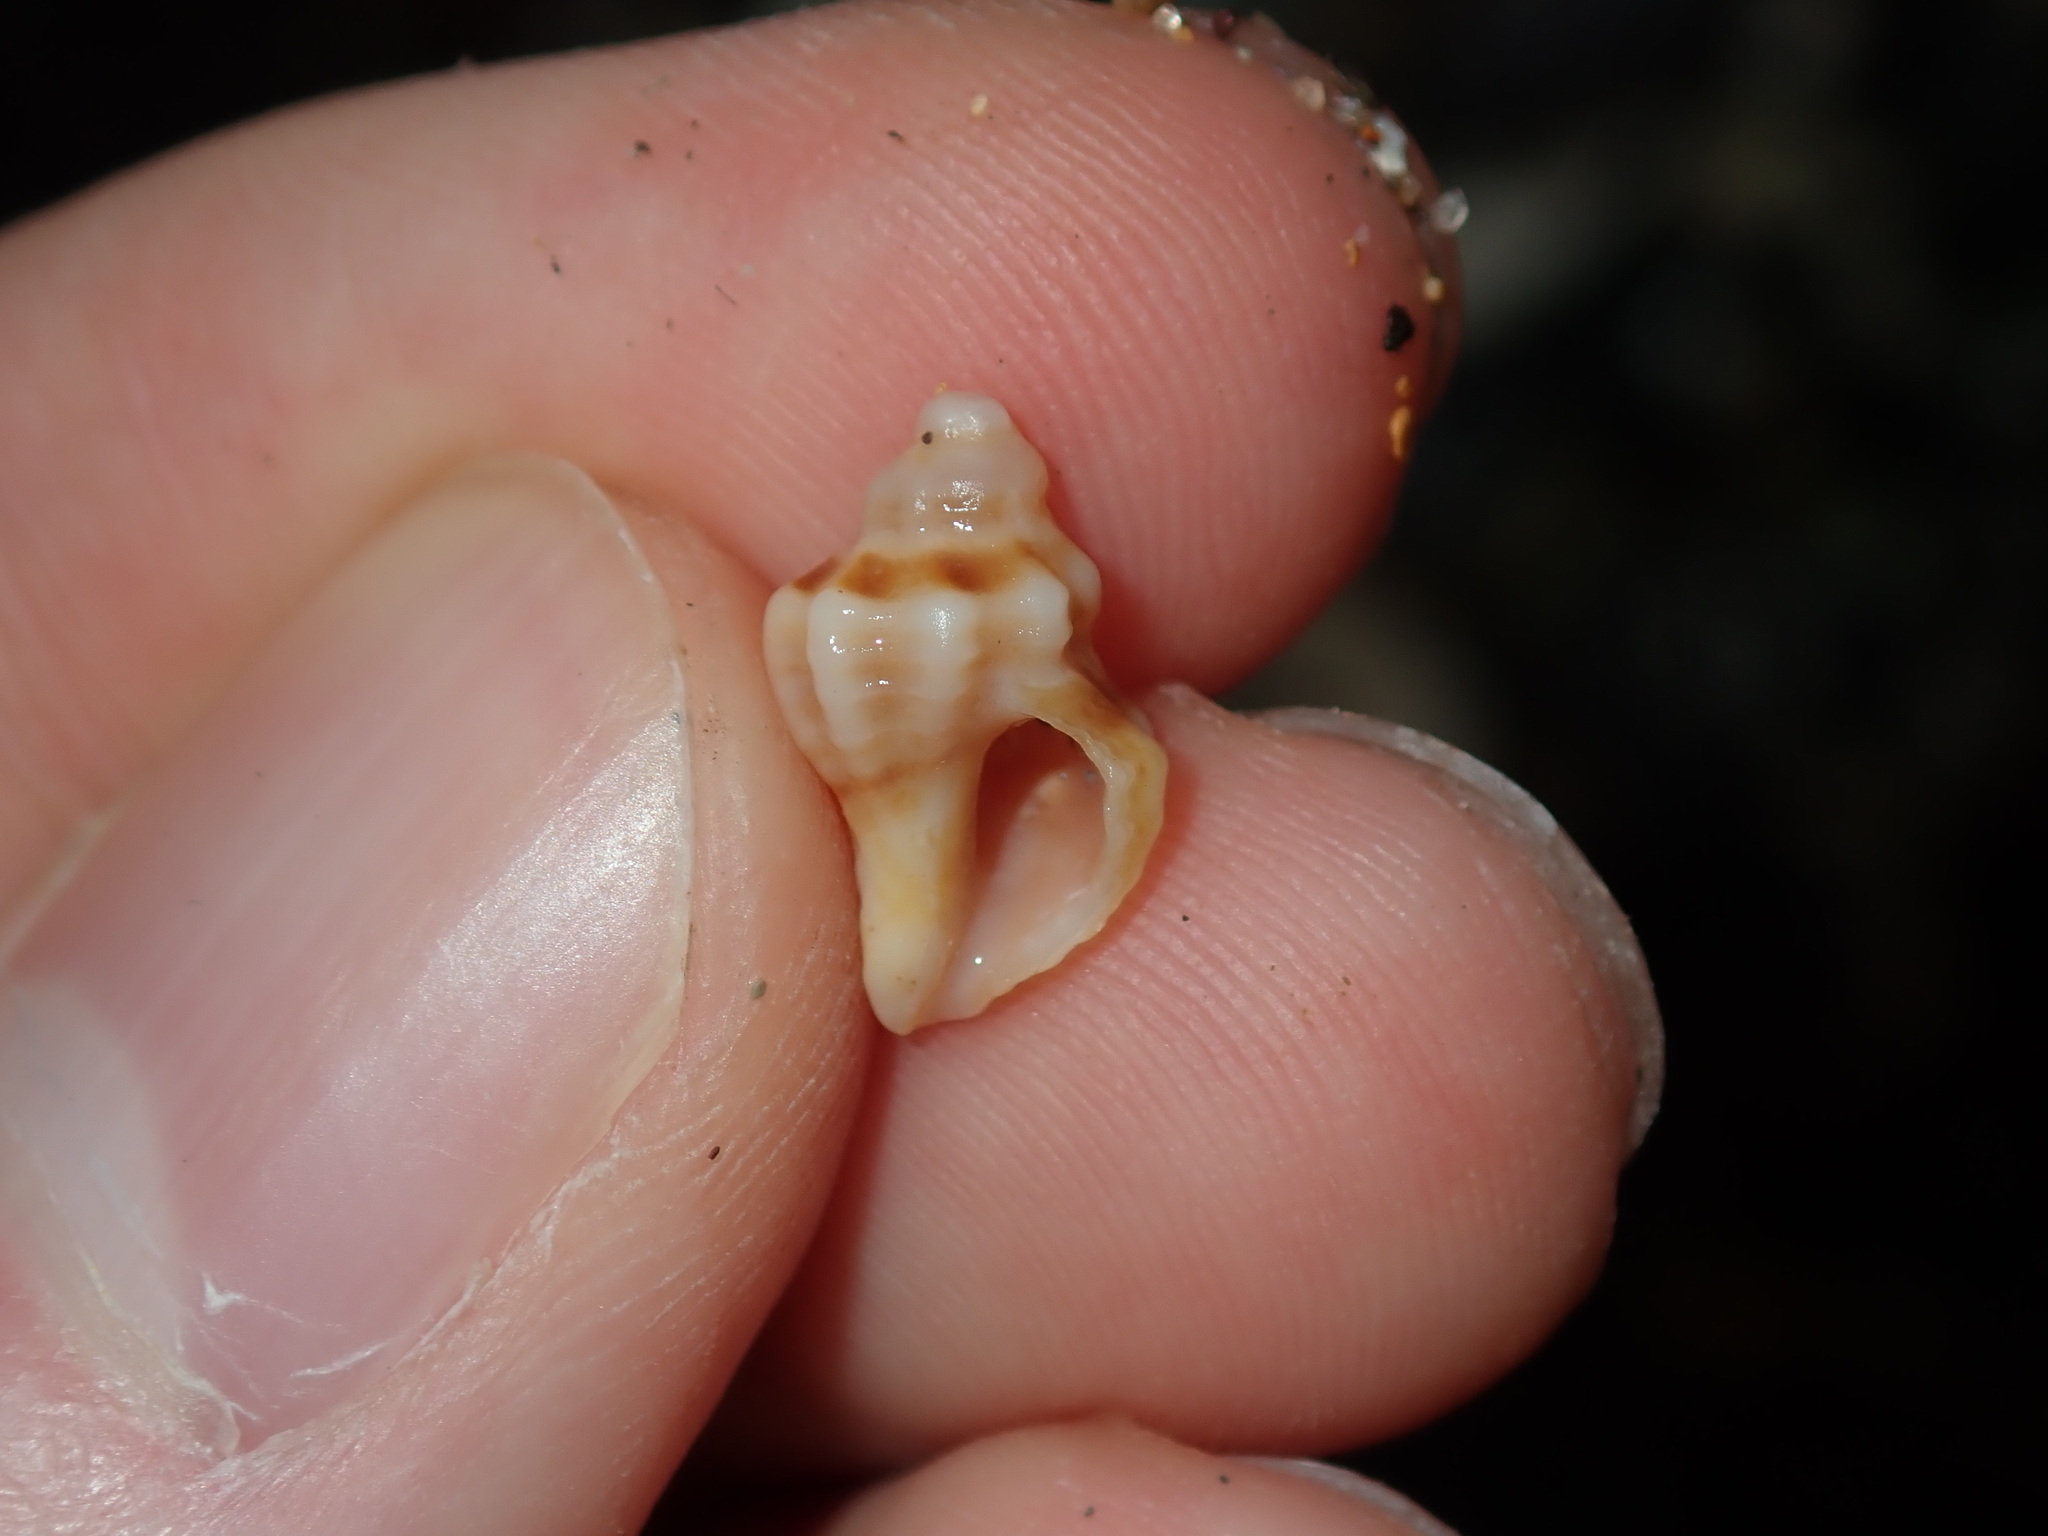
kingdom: Animalia
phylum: Mollusca
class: Gastropoda
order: Neogastropoda
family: Muricidae
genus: Bedeva
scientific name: Bedeva paivae
